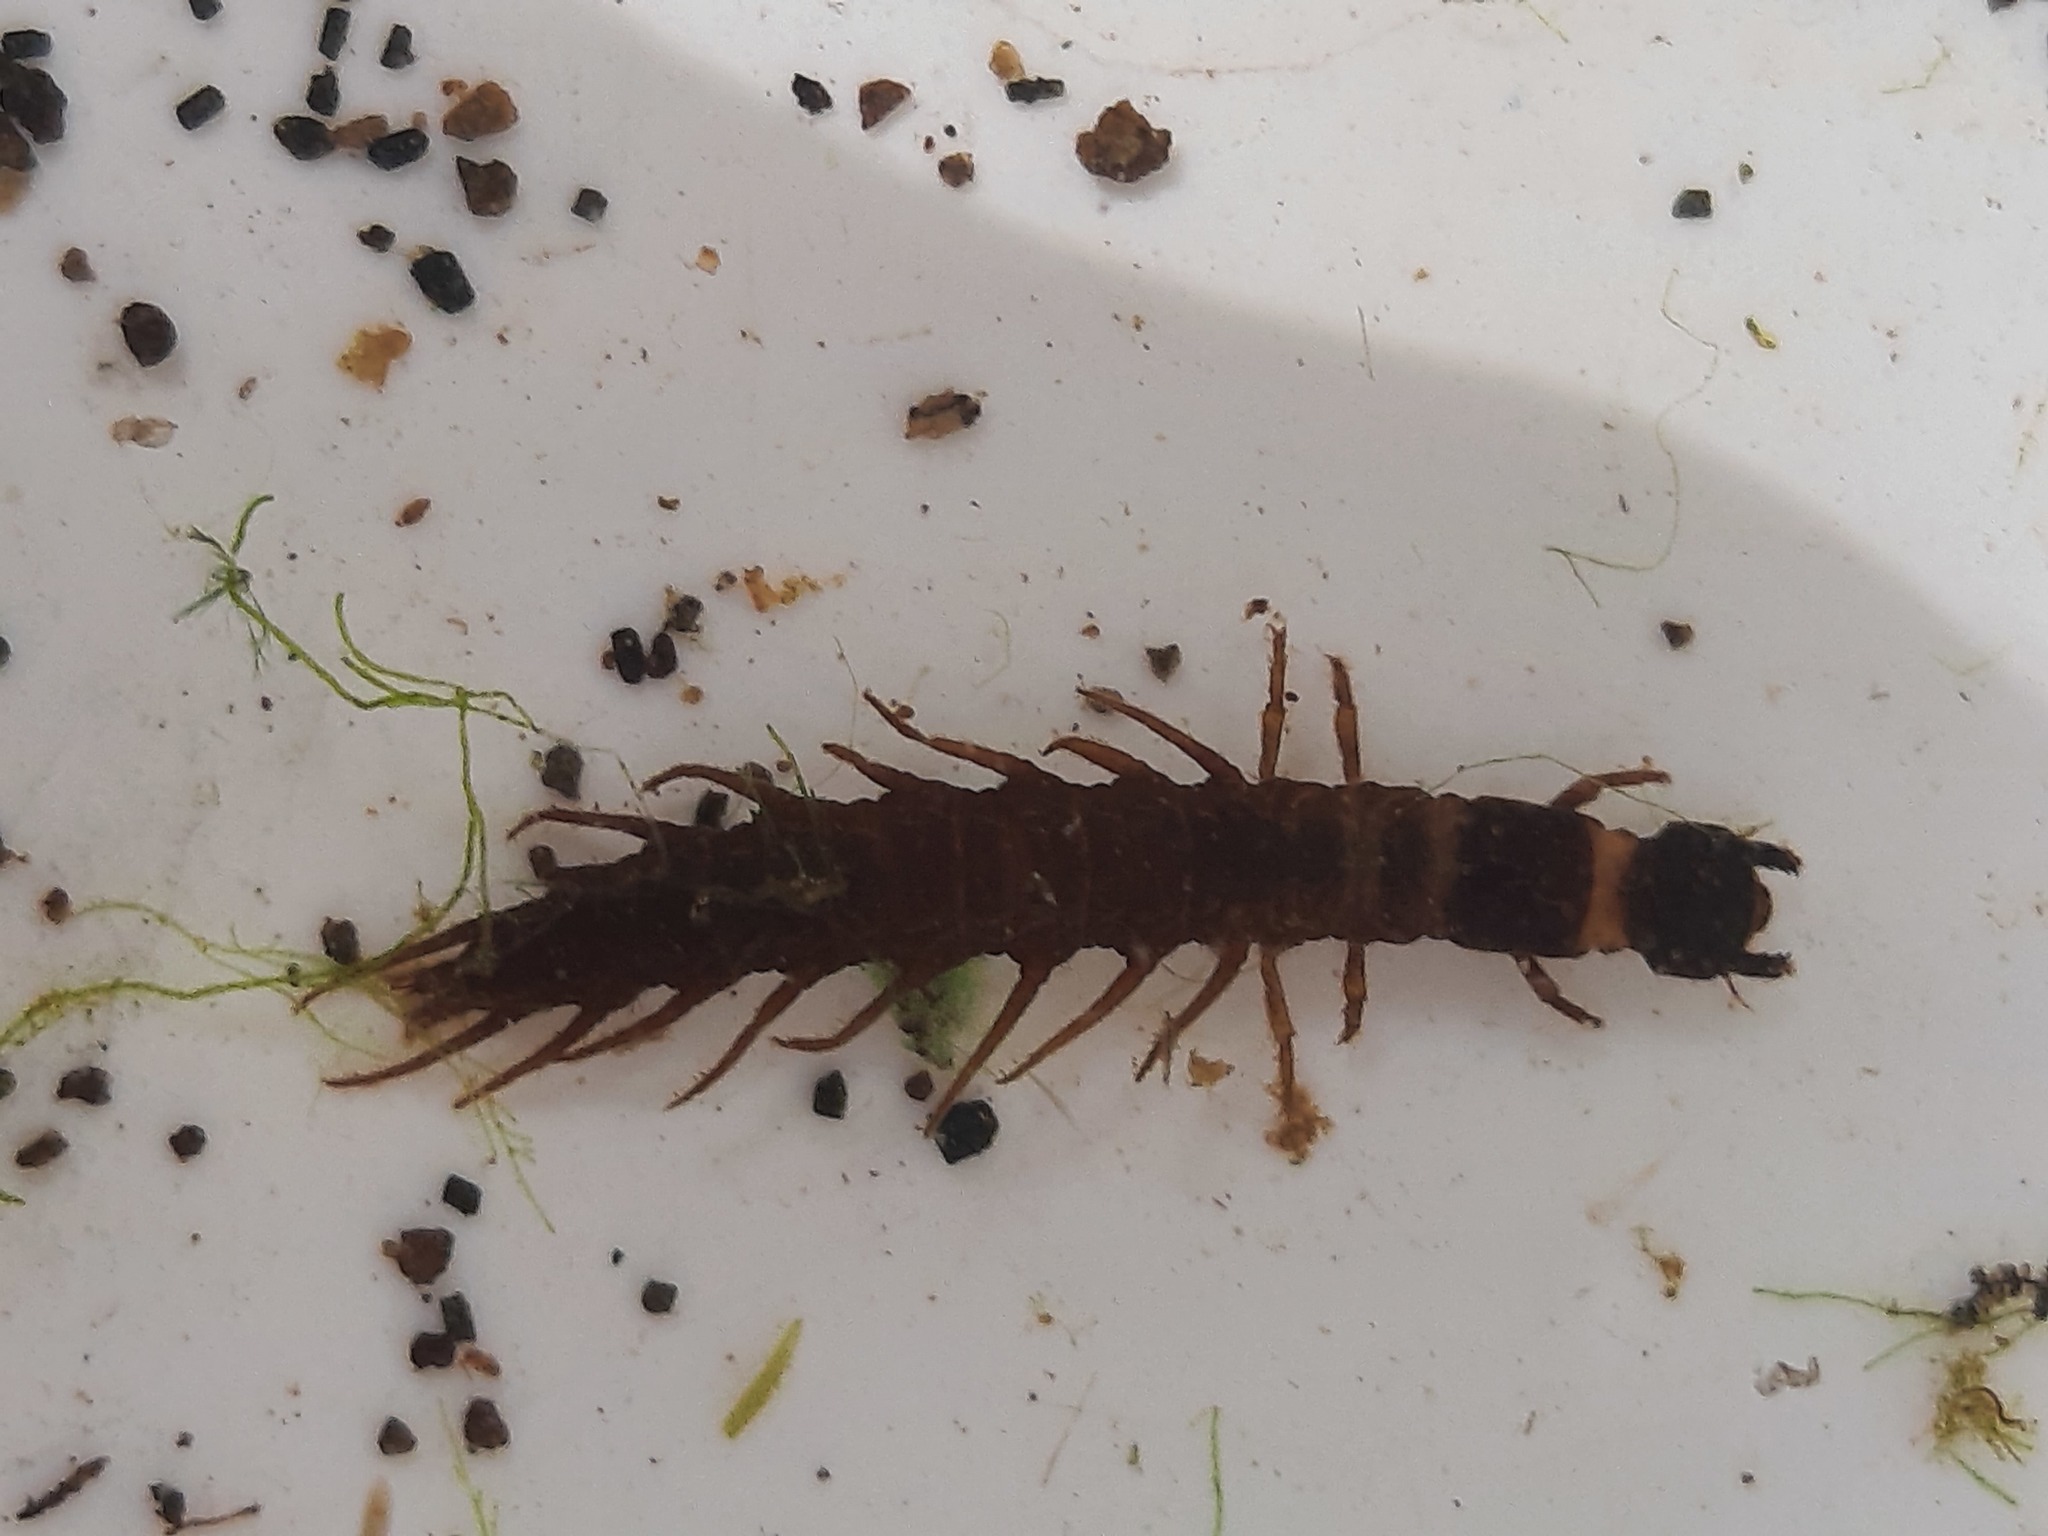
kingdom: Animalia
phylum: Arthropoda
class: Insecta
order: Megaloptera
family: Corydalidae
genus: Archichauliodes
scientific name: Archichauliodes diversus
